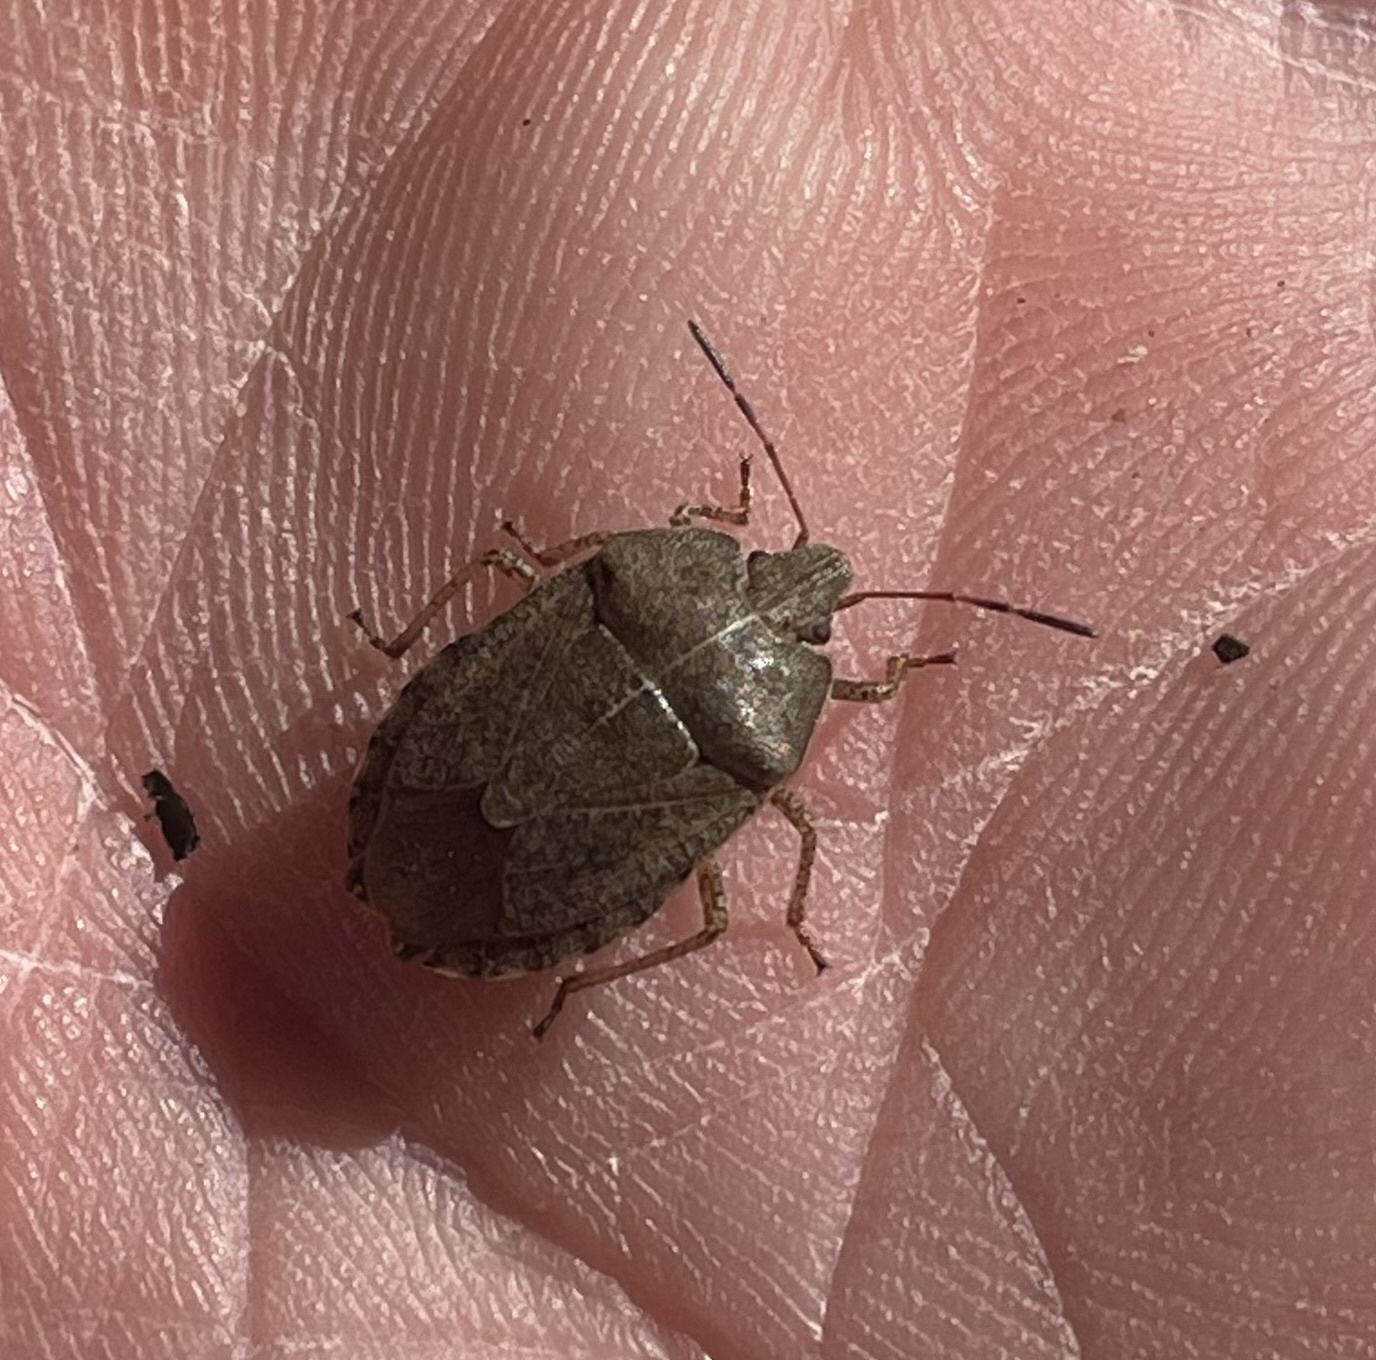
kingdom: Animalia
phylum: Arthropoda
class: Insecta
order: Hemiptera
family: Pentatomidae
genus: Menecles
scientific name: Menecles insertus
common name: Elf shoe stink bug
